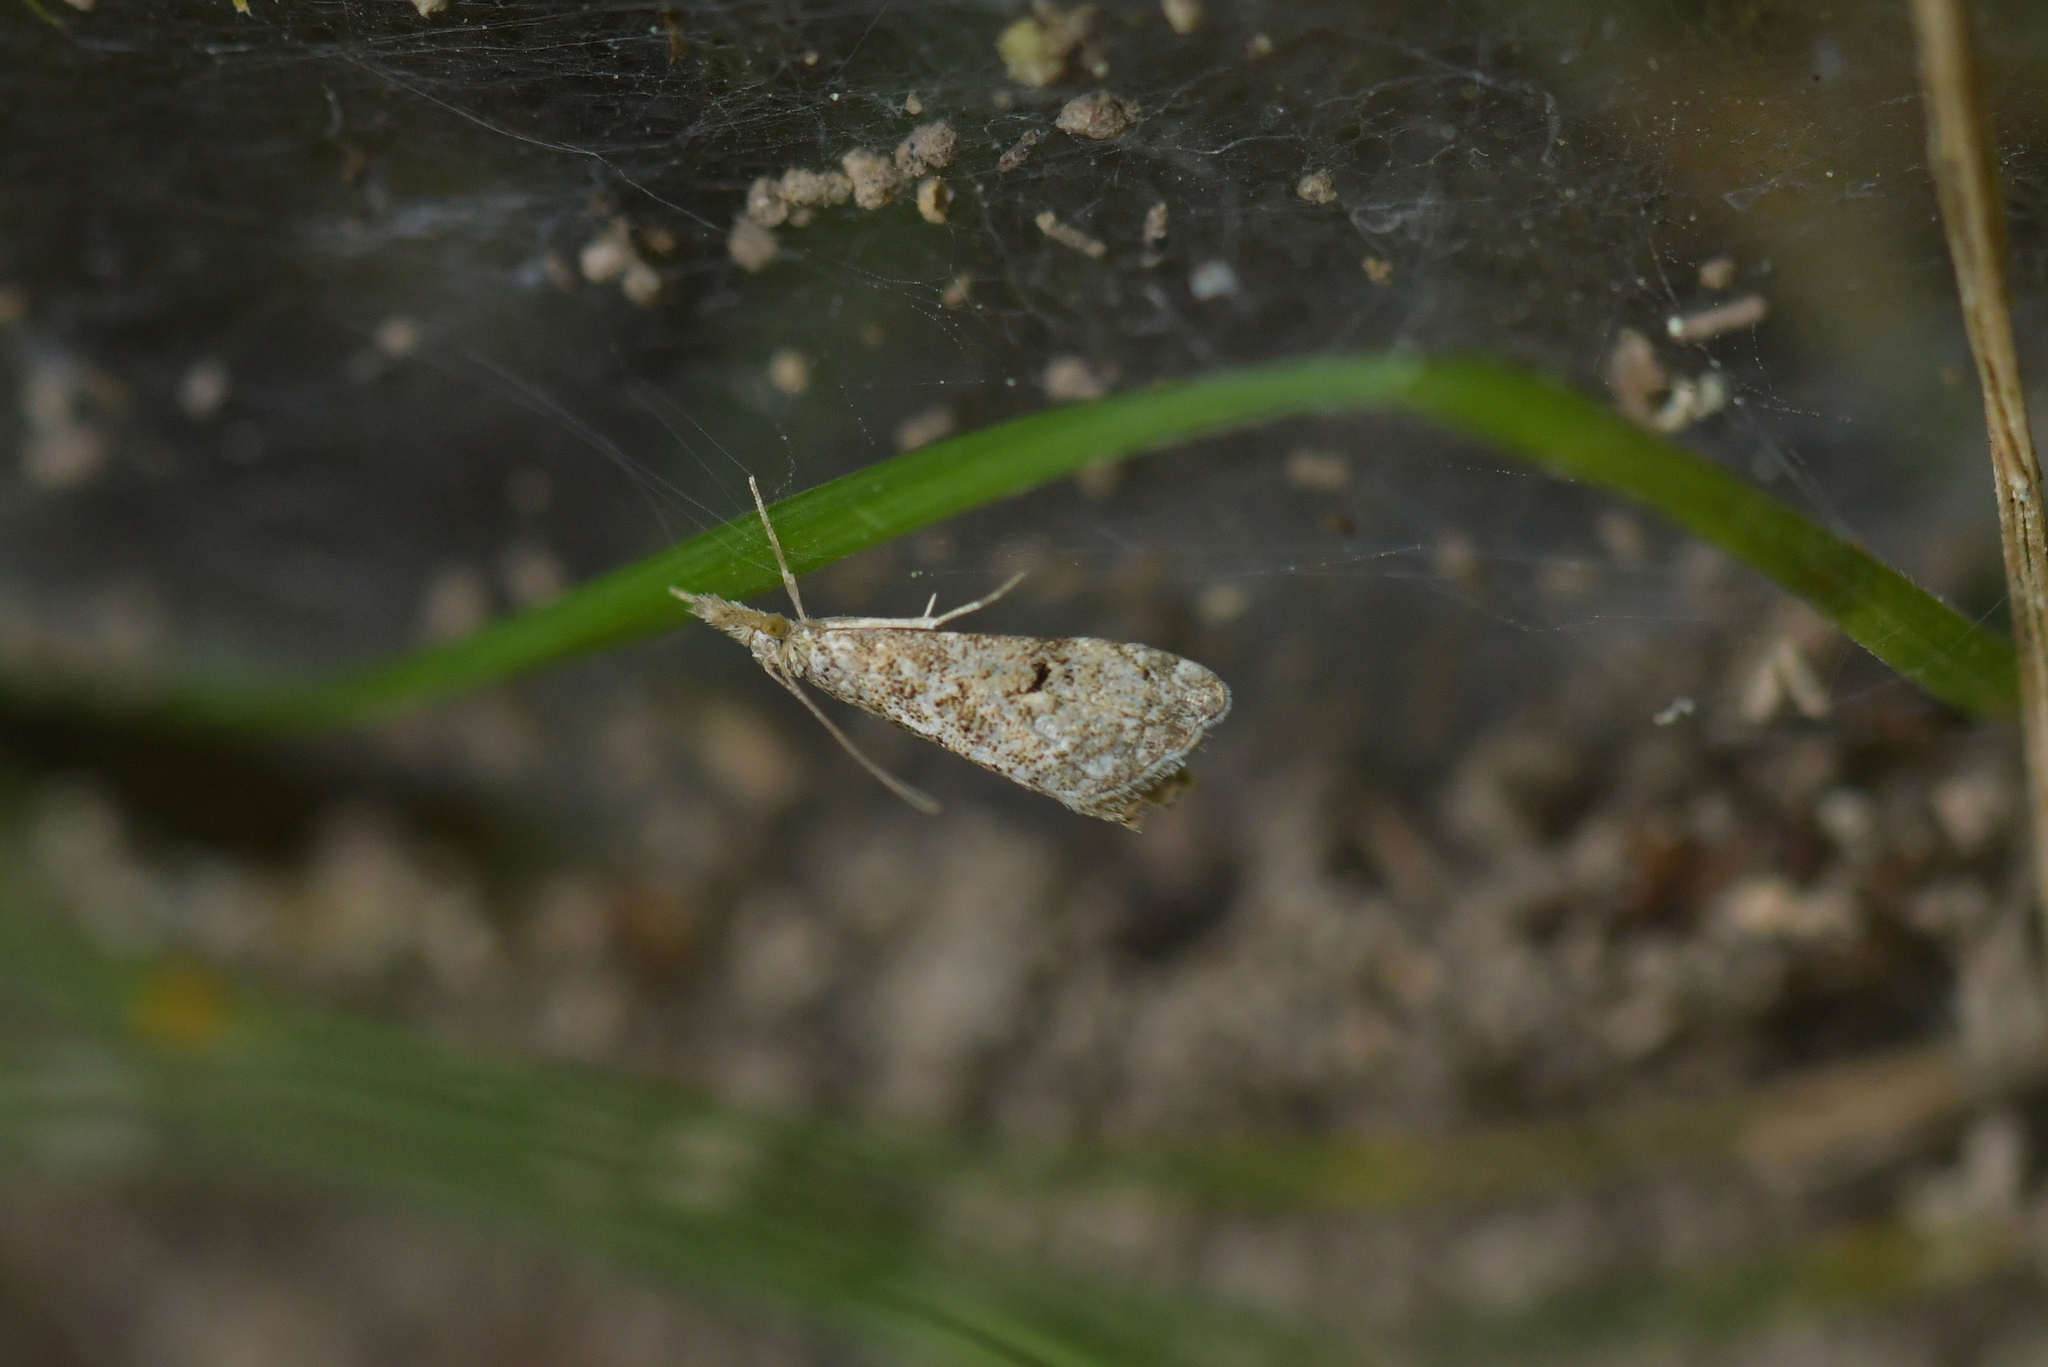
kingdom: Animalia
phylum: Arthropoda
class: Insecta
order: Lepidoptera
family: Crambidae
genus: Glaucocharis
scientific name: Glaucocharis elaina
